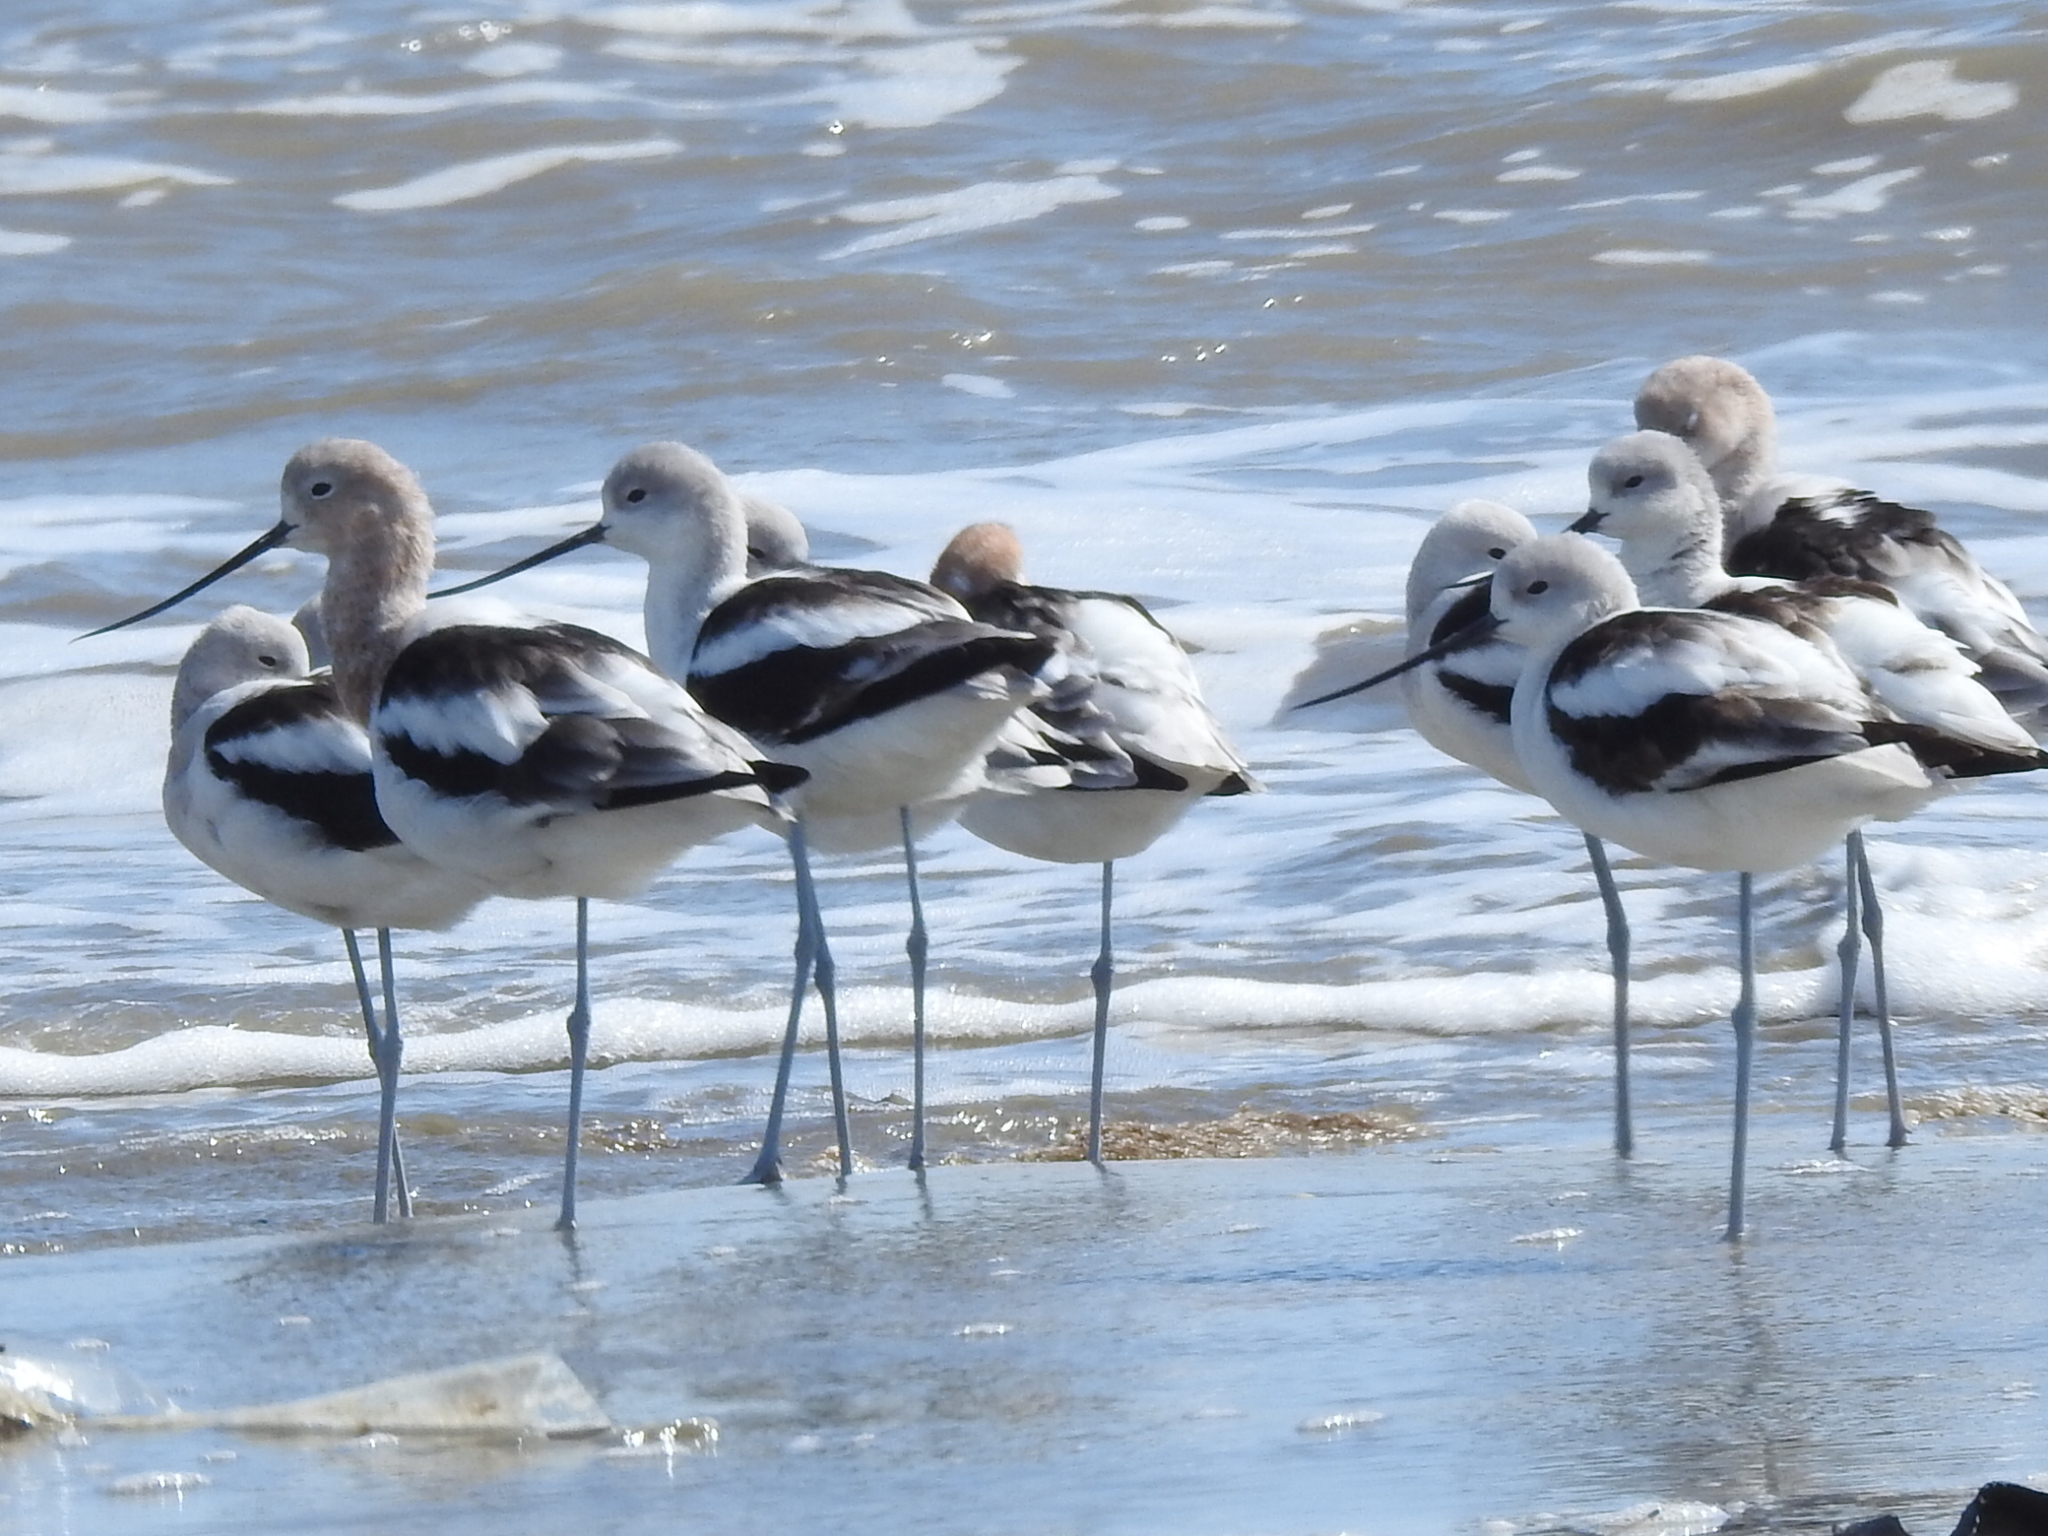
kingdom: Animalia
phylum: Chordata
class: Aves
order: Charadriiformes
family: Recurvirostridae
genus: Recurvirostra
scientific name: Recurvirostra americana
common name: American avocet
